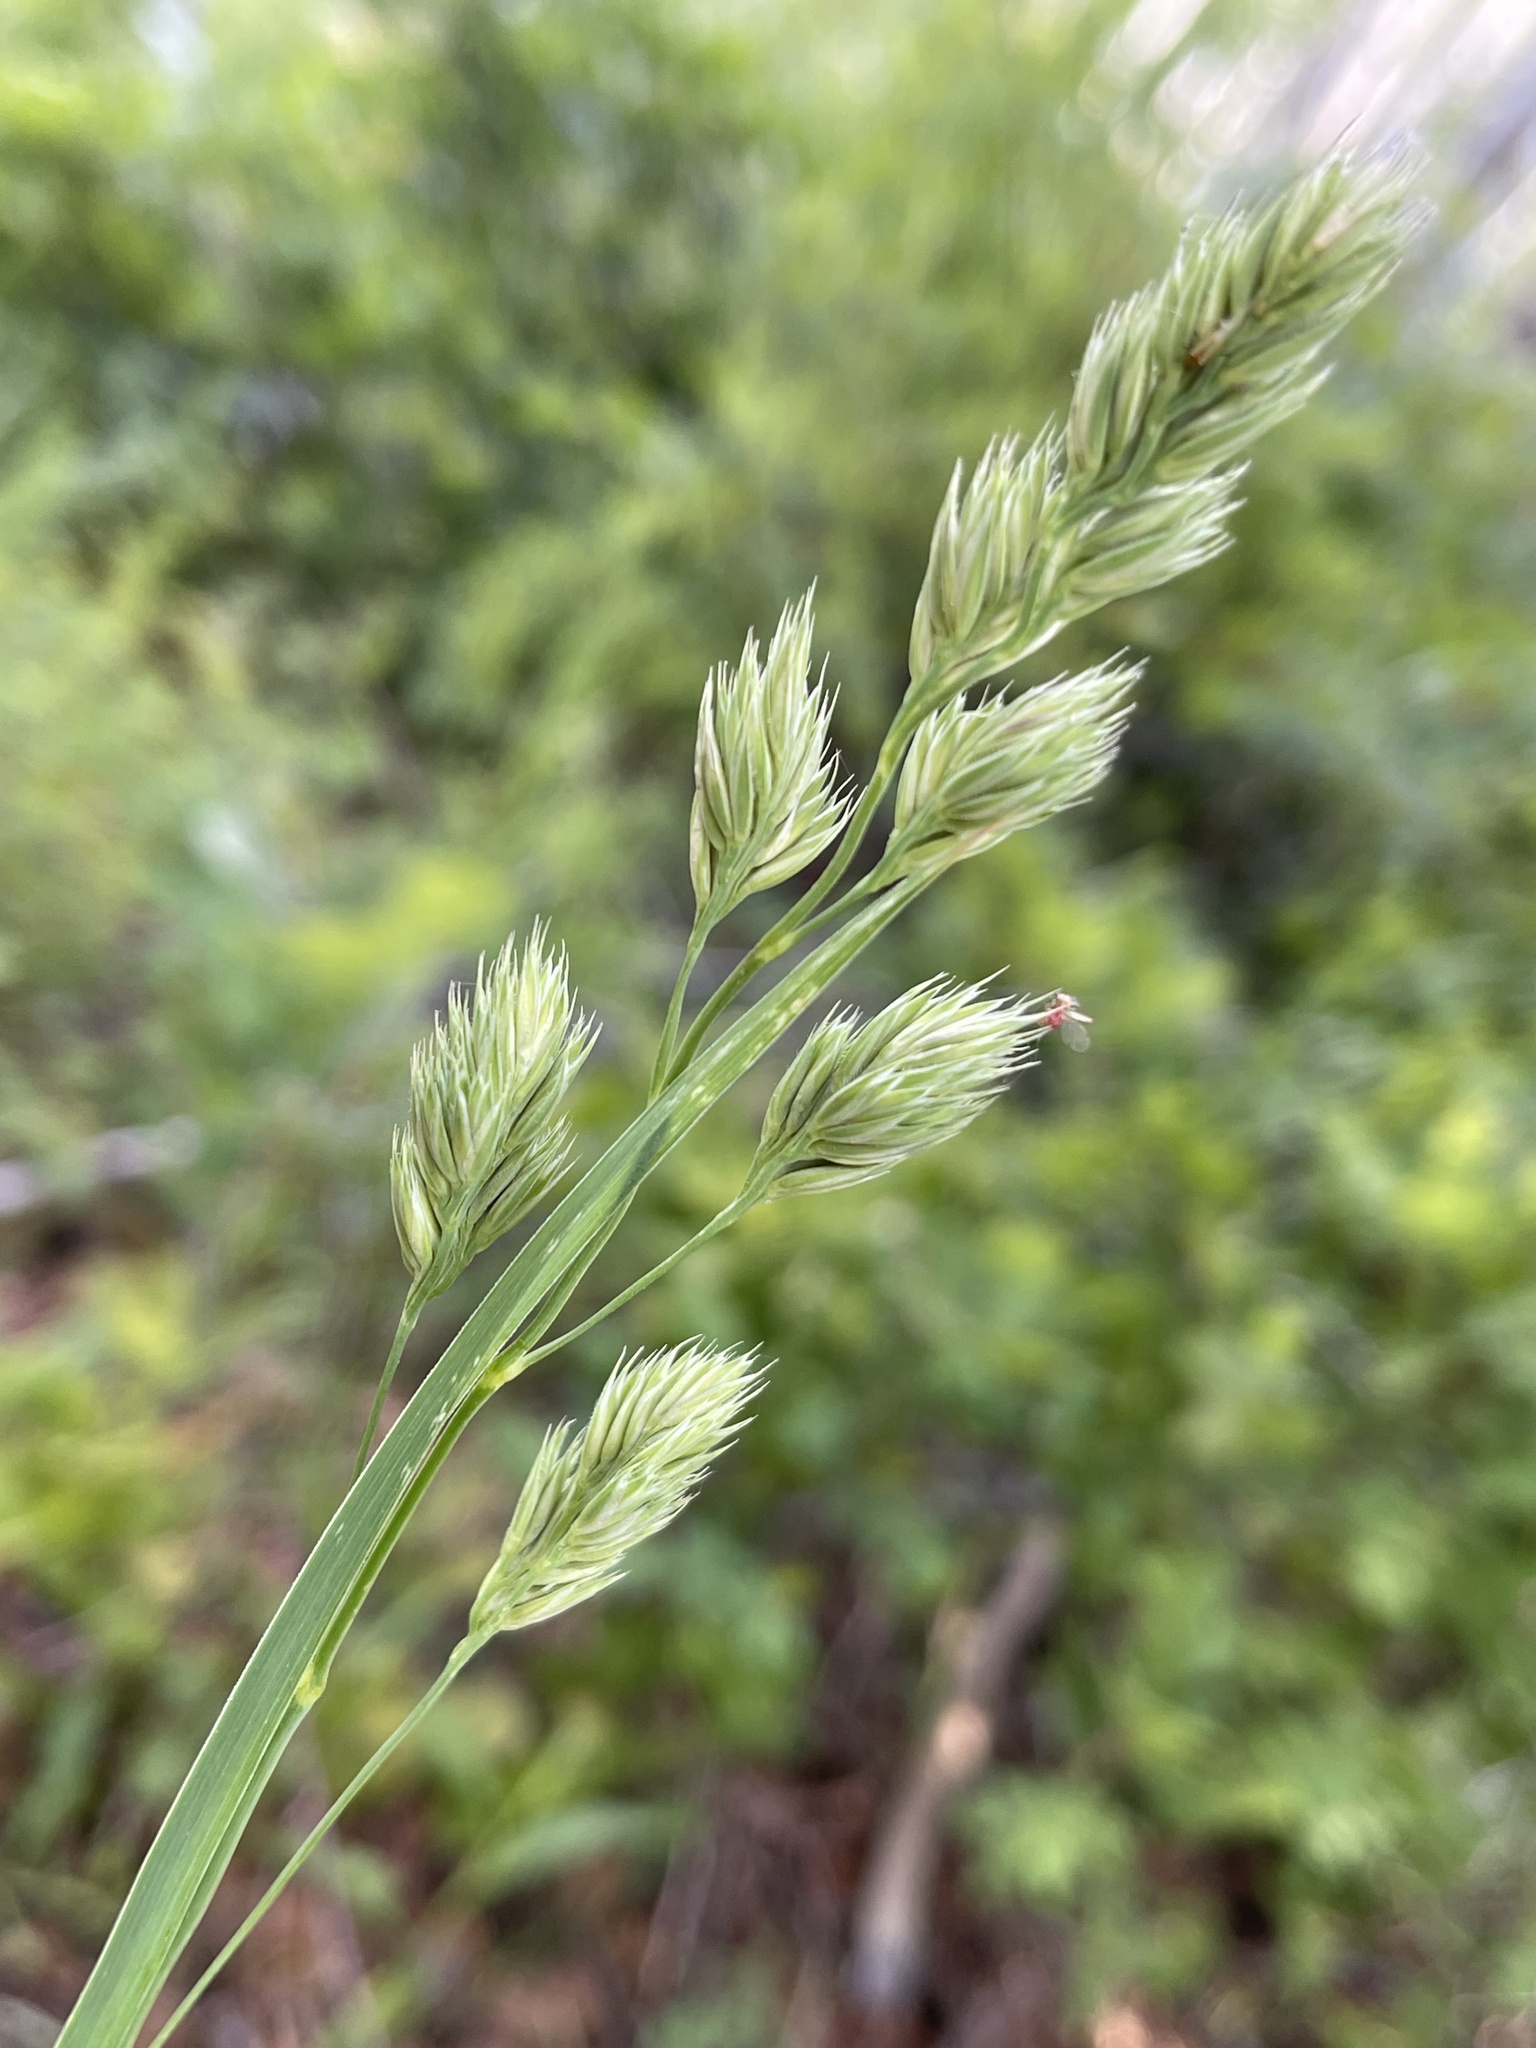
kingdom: Plantae
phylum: Tracheophyta
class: Liliopsida
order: Poales
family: Poaceae
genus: Dactylis
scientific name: Dactylis glomerata
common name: Orchardgrass
